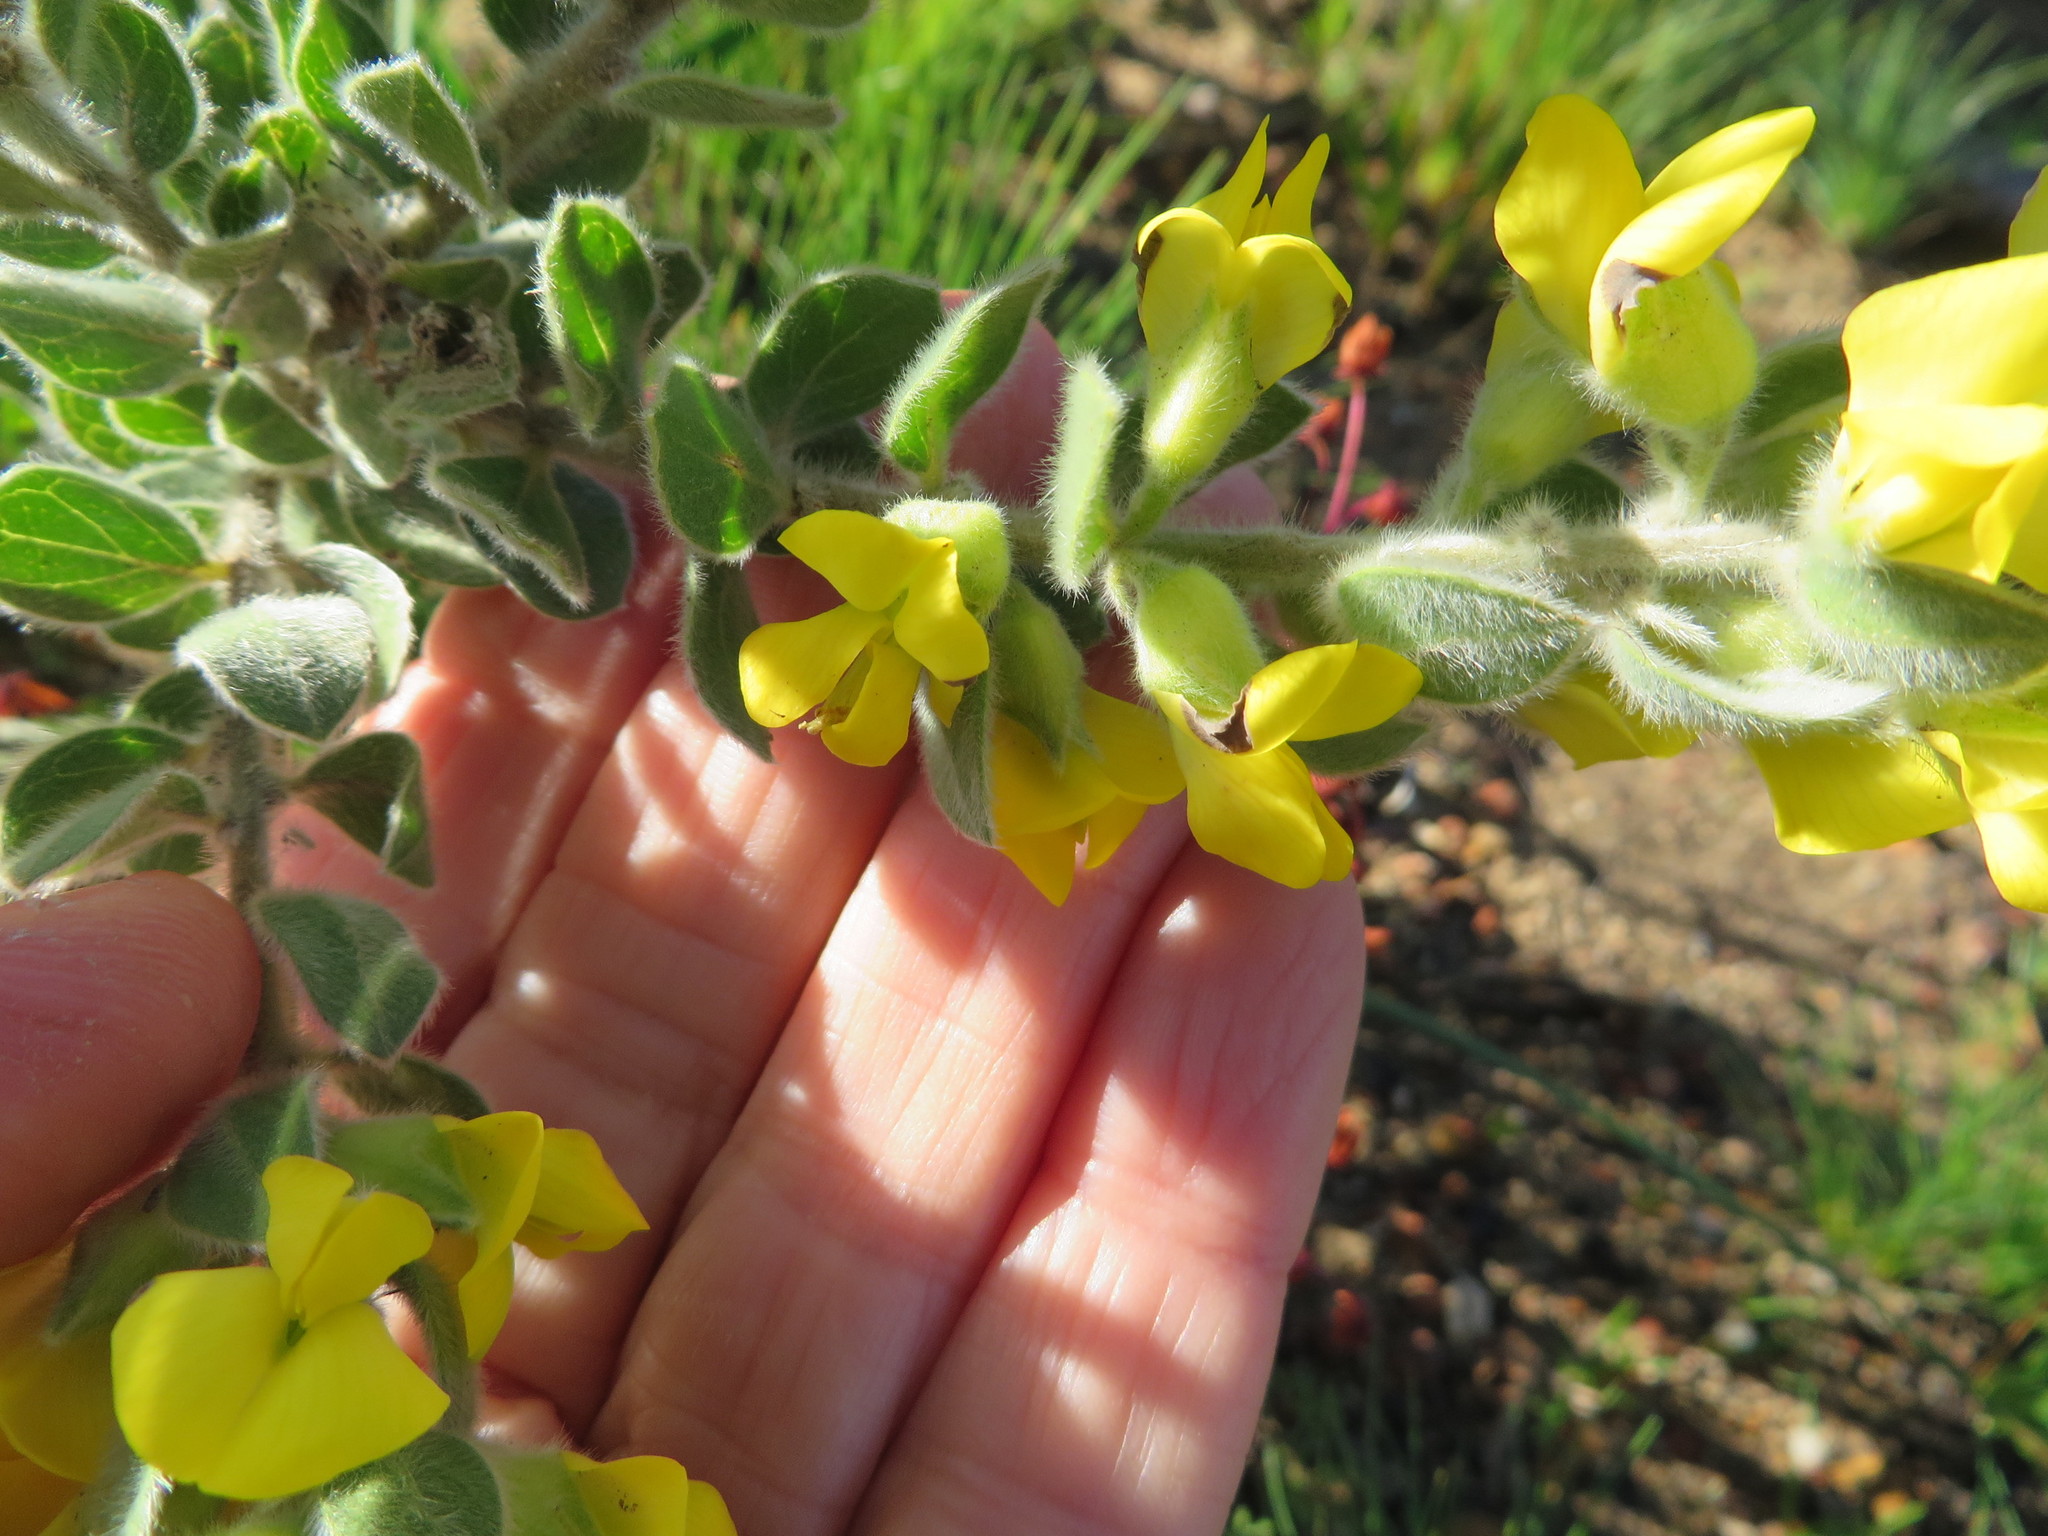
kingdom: Plantae
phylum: Tracheophyta
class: Magnoliopsida
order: Fabales
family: Fabaceae
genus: Xiphotheca
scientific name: Xiphotheca tecta
